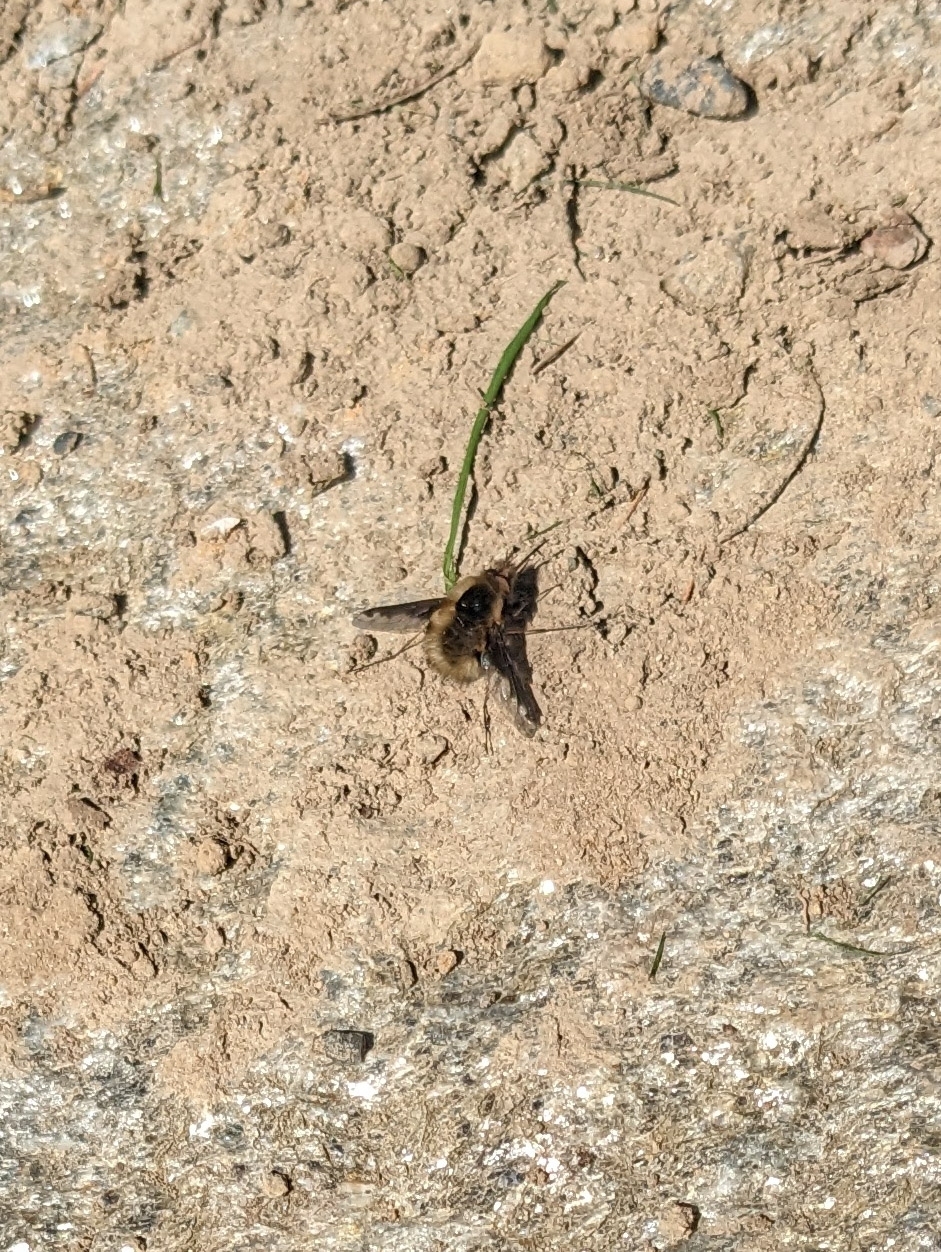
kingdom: Animalia
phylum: Arthropoda
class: Insecta
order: Diptera
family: Bombyliidae
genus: Bombylius
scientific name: Bombylius major
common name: Bee fly
